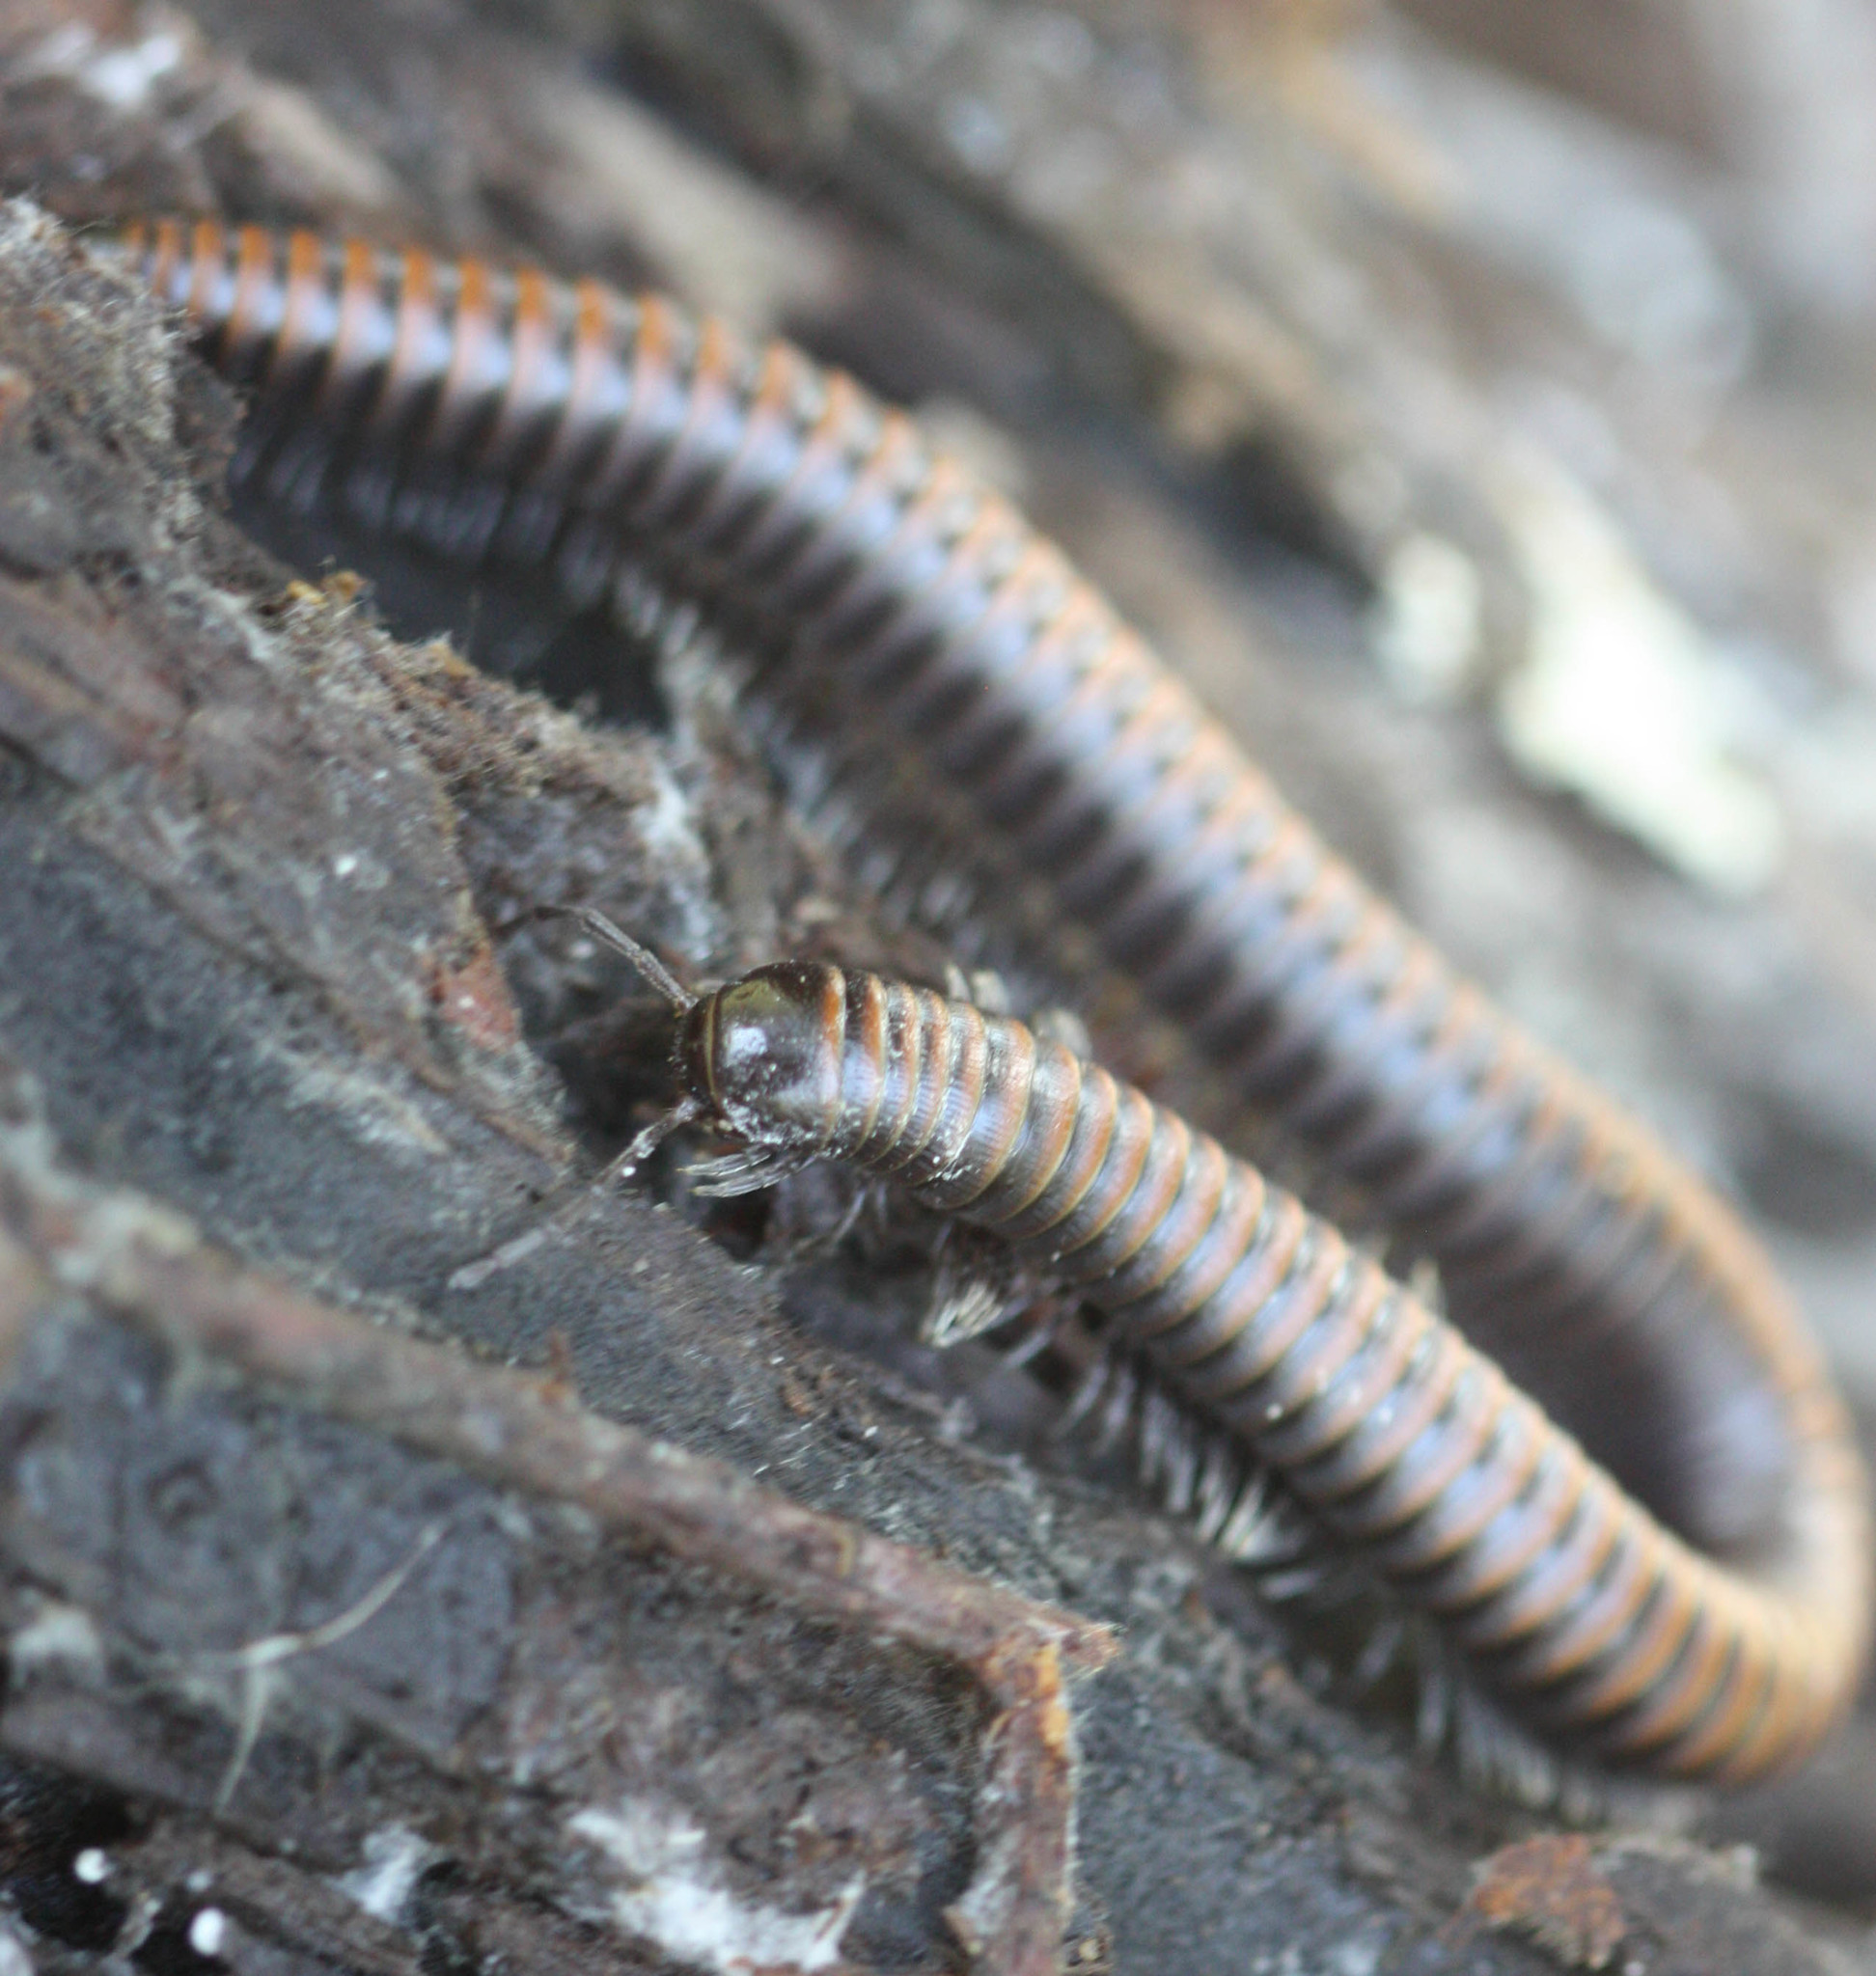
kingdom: Animalia
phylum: Arthropoda
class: Diplopoda
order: Julida
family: Paeromopodidae
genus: Paeromopus
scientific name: Paeromopus angusticeps
